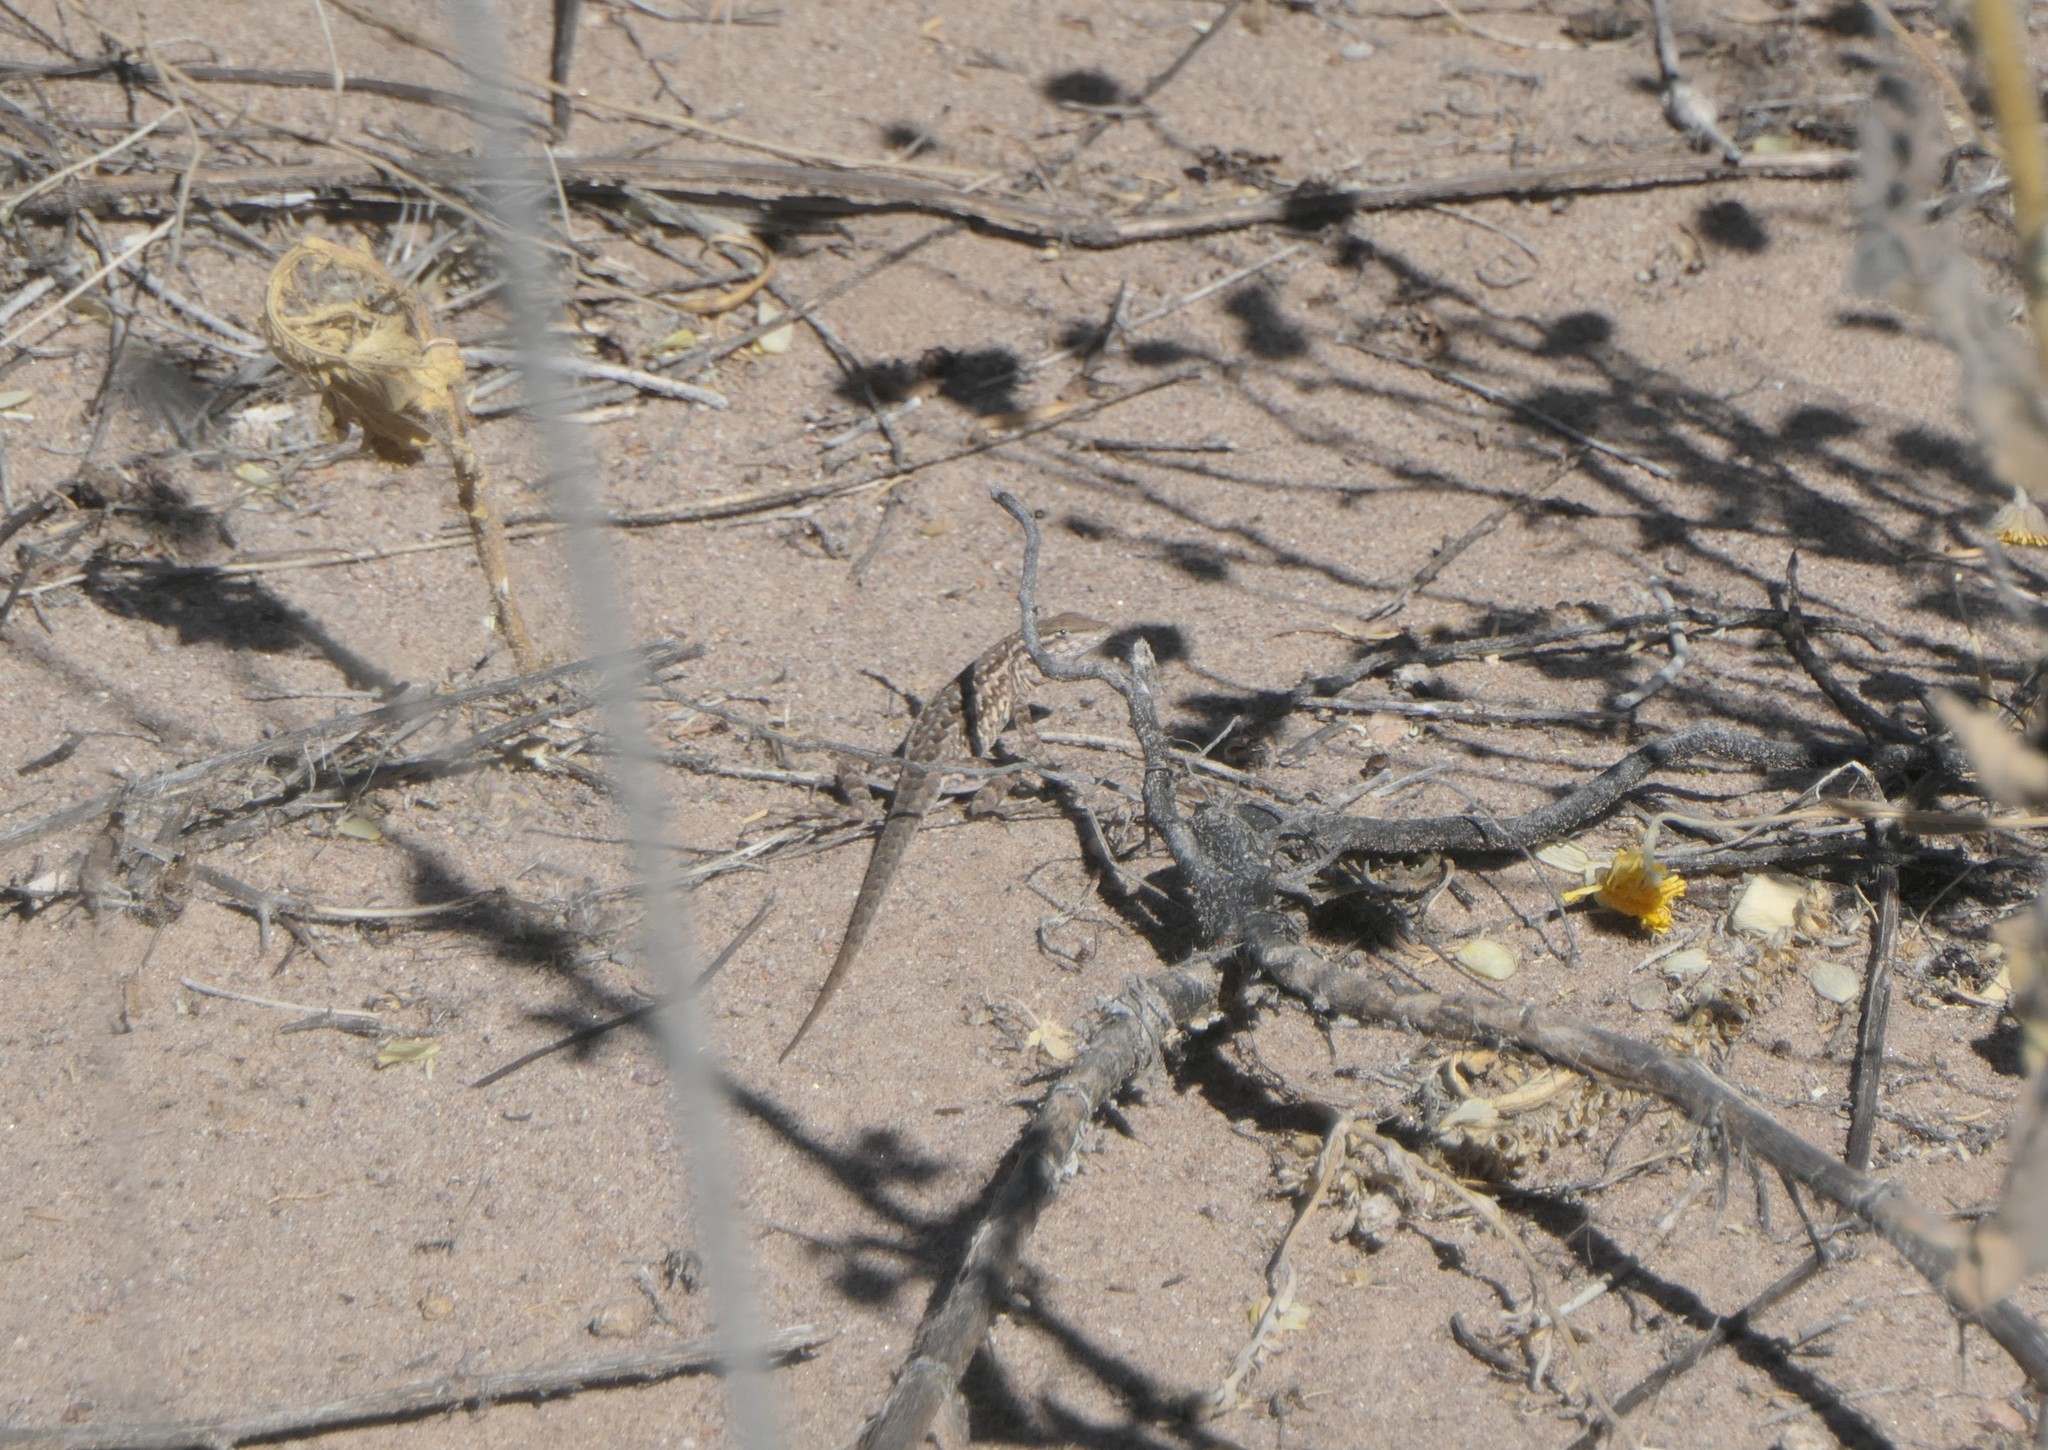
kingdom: Animalia
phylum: Chordata
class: Squamata
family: Phrynosomatidae
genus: Uta
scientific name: Uta stansburiana
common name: Side-blotched lizard
